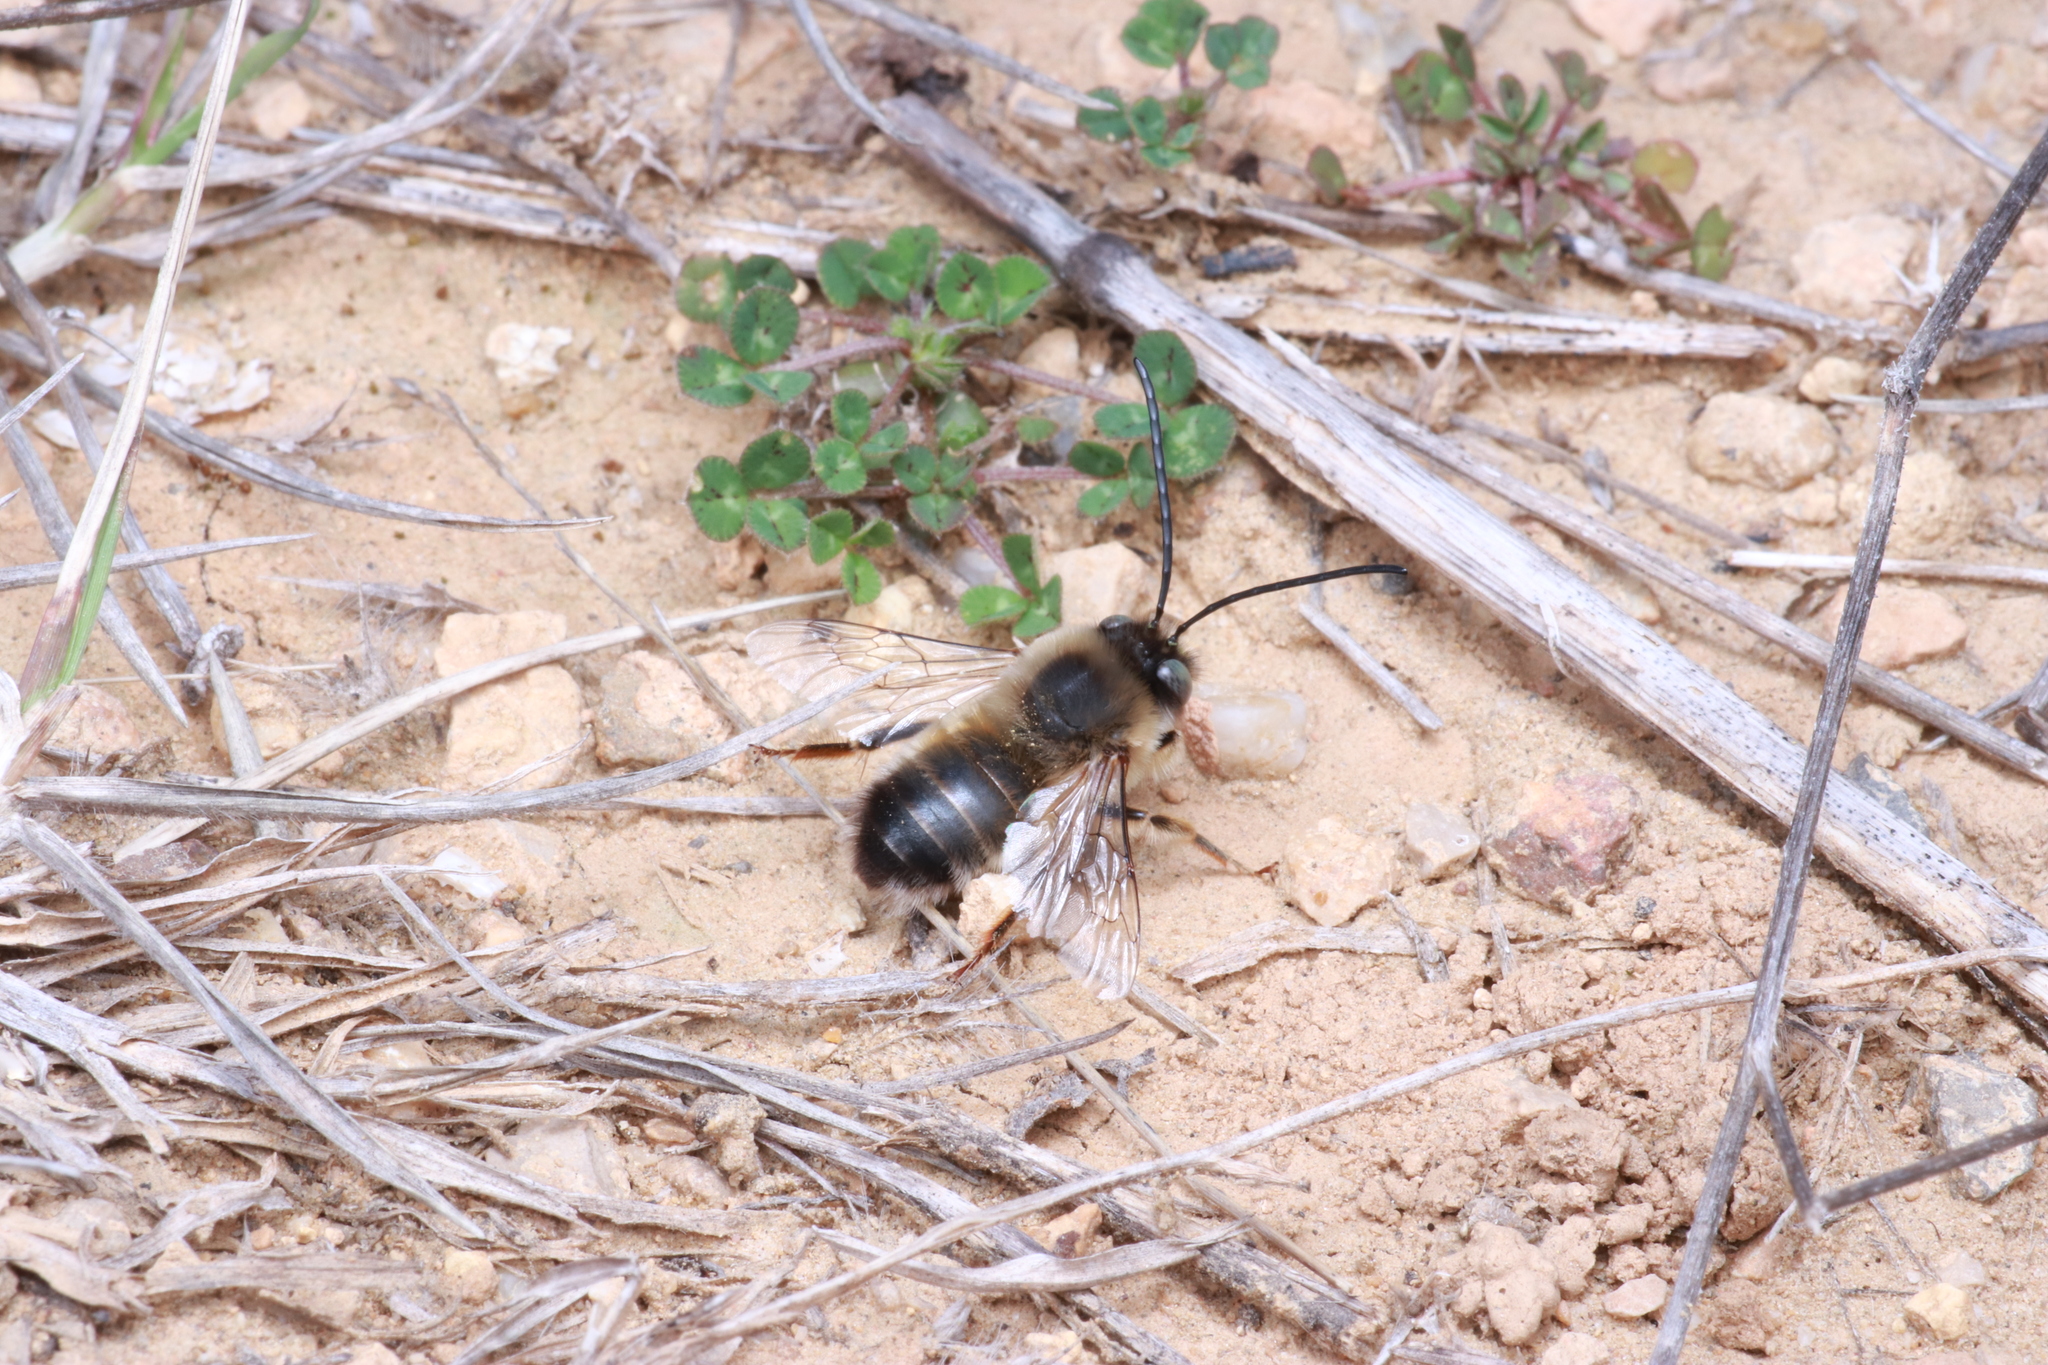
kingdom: Animalia
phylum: Arthropoda
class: Insecta
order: Hymenoptera
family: Apidae
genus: Eucera
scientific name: Eucera nigrilabris
